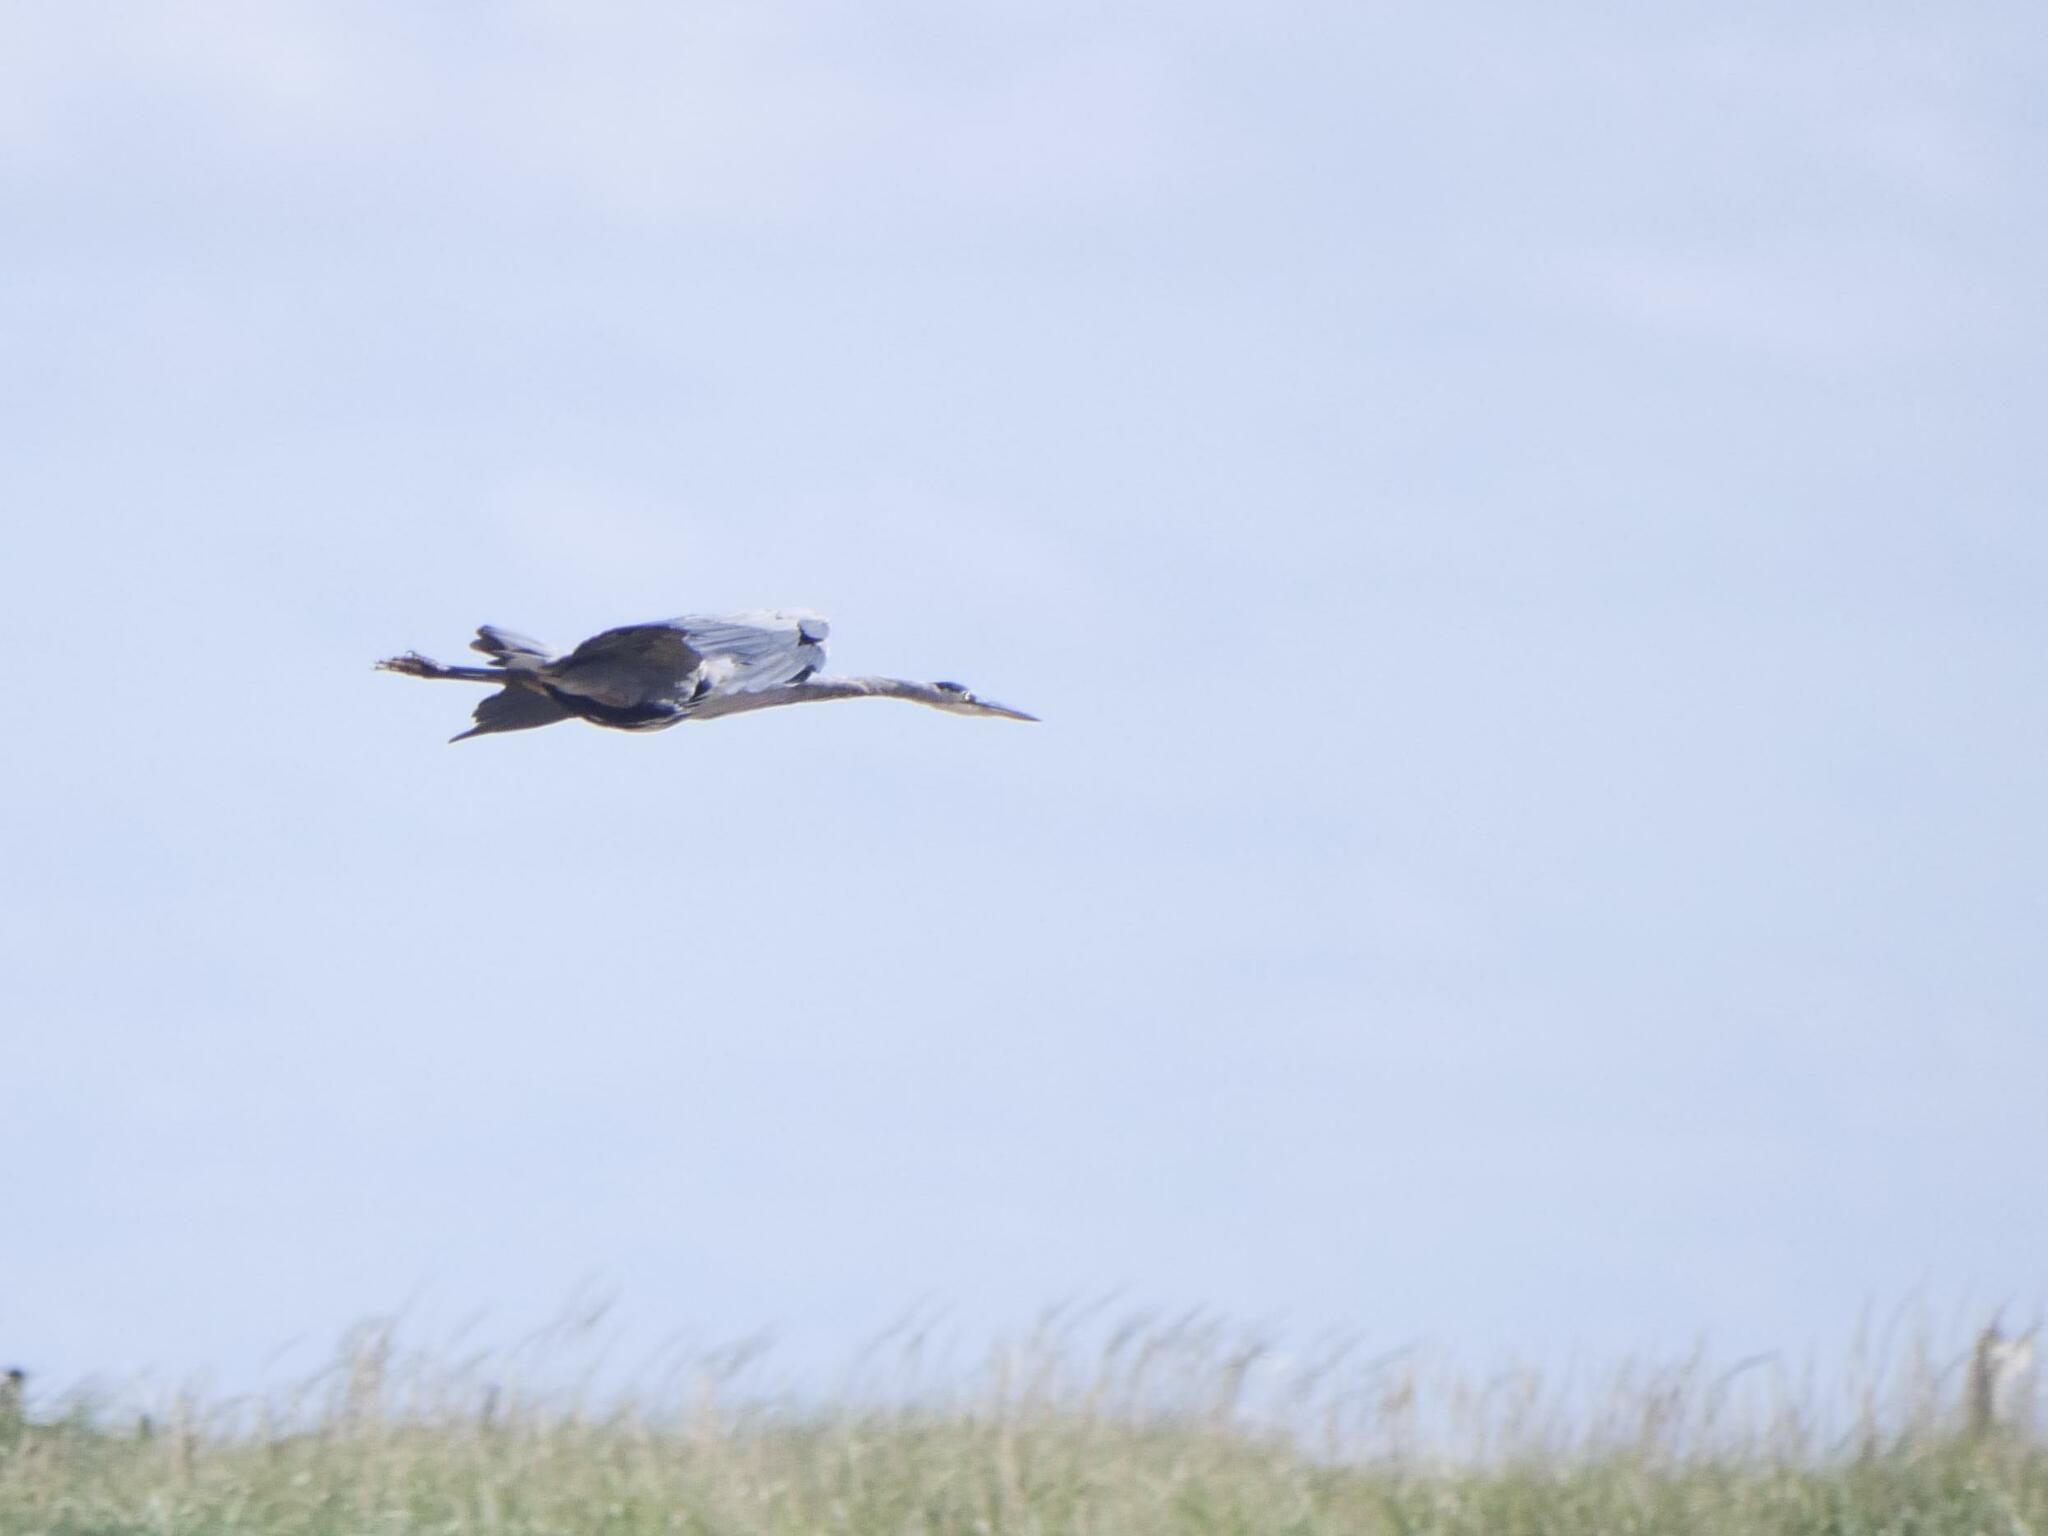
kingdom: Animalia
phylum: Chordata
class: Aves
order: Pelecaniformes
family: Ardeidae
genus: Ardea
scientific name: Ardea herodias
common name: Great blue heron
